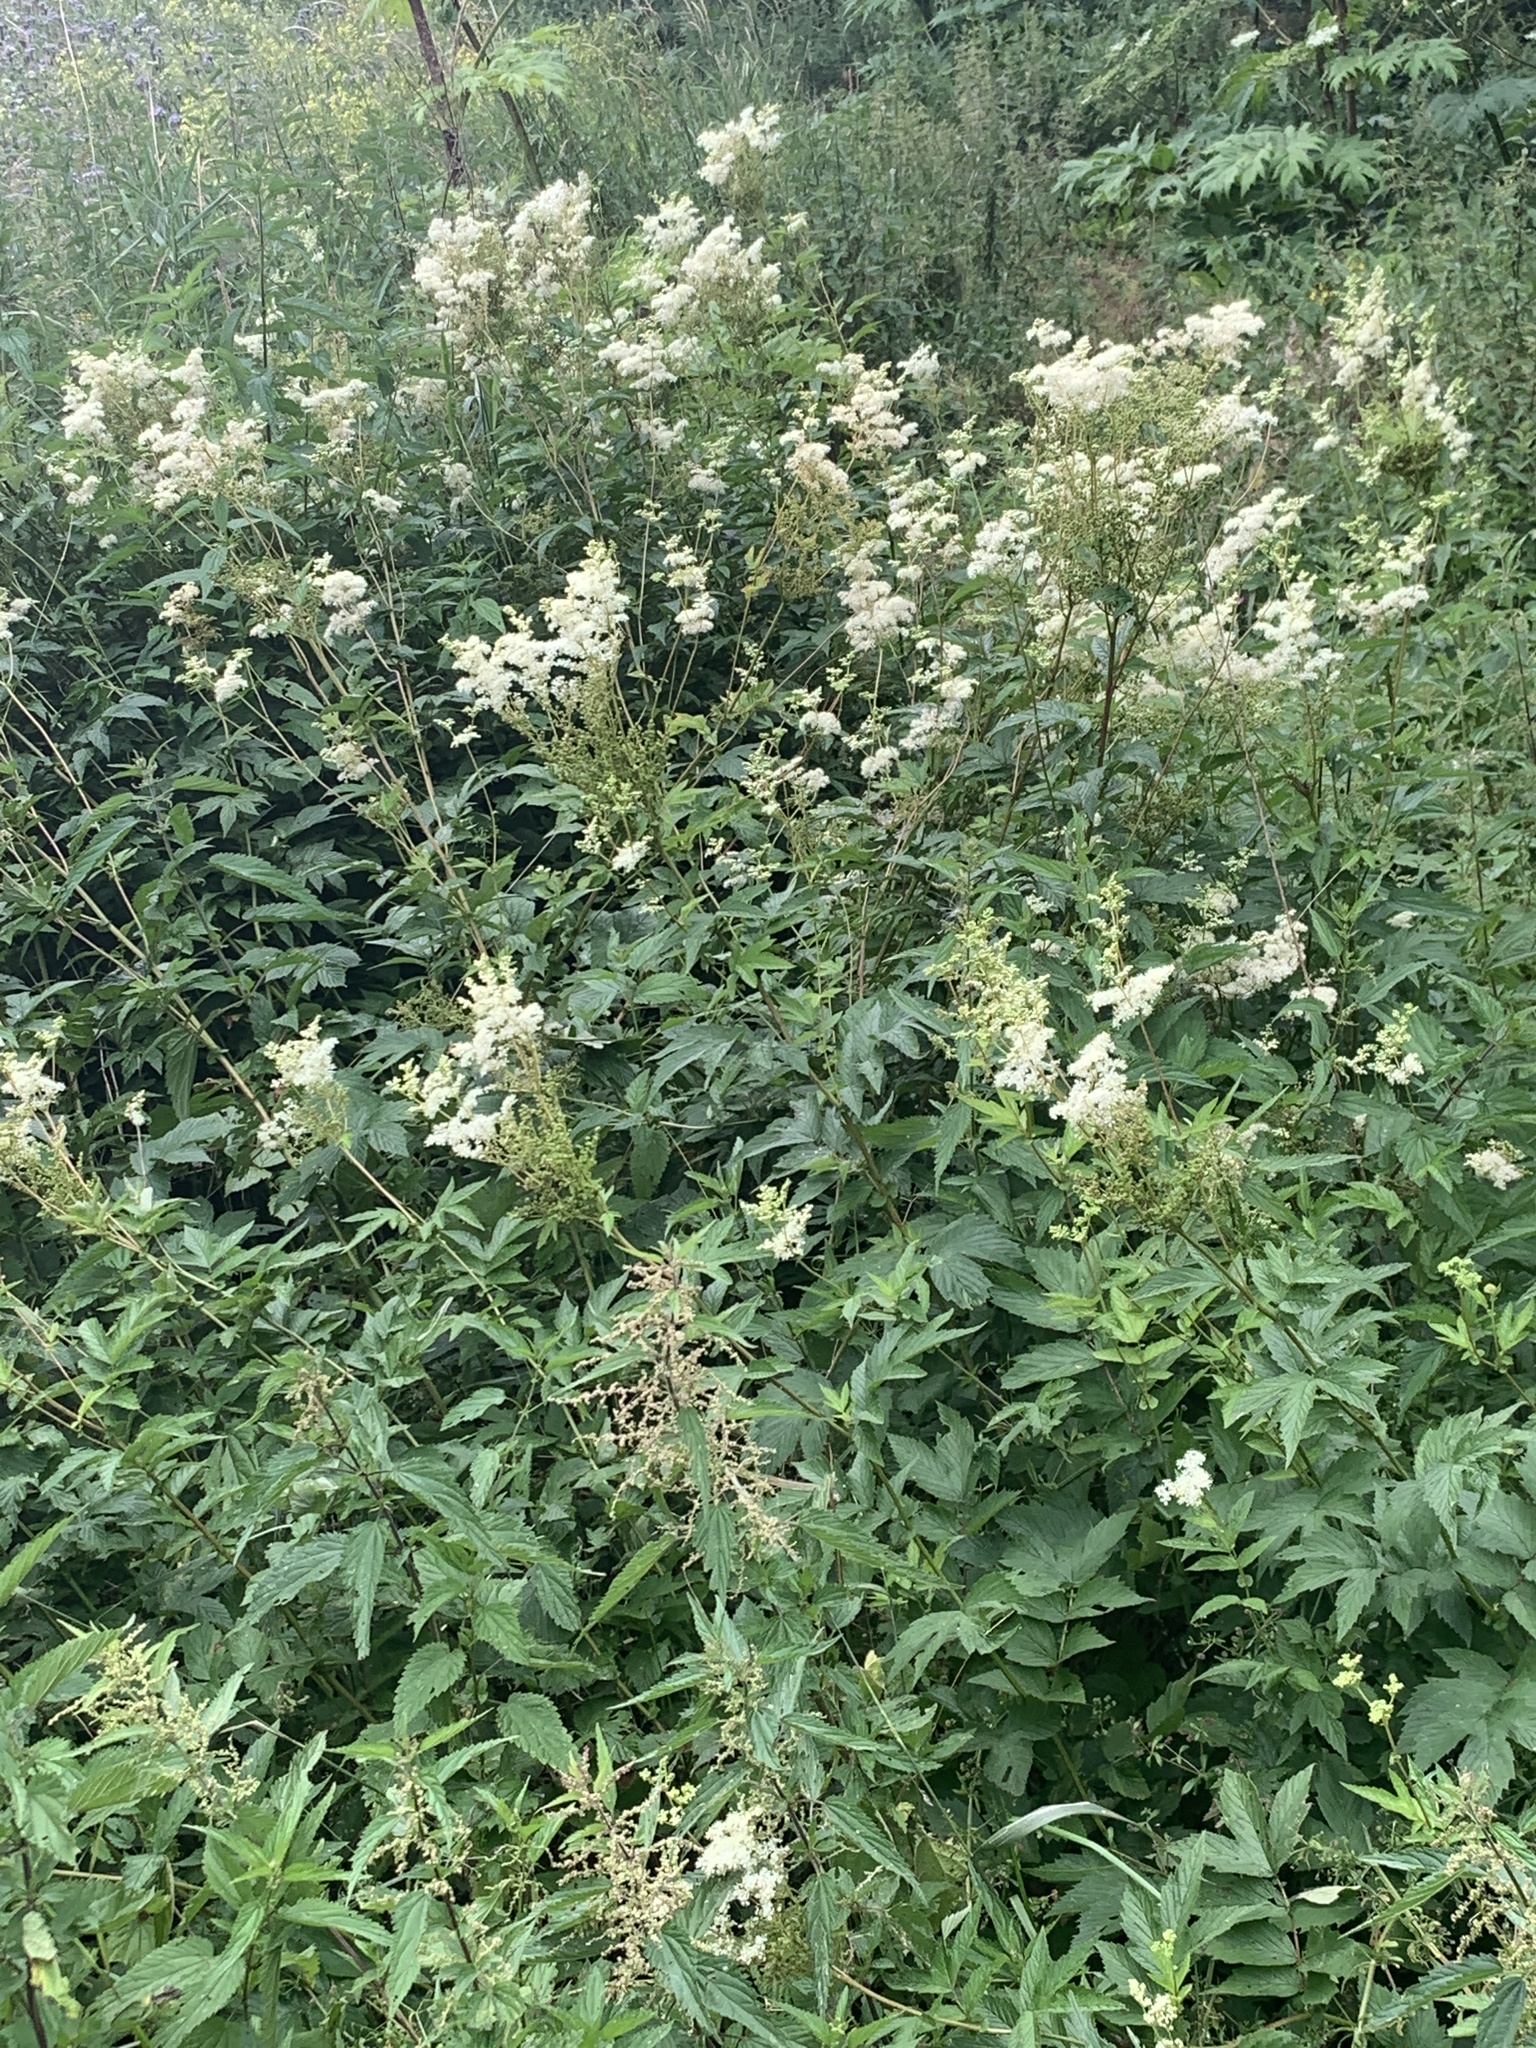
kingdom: Plantae
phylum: Tracheophyta
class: Magnoliopsida
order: Rosales
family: Rosaceae
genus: Filipendula
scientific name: Filipendula ulmaria
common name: Meadowsweet
